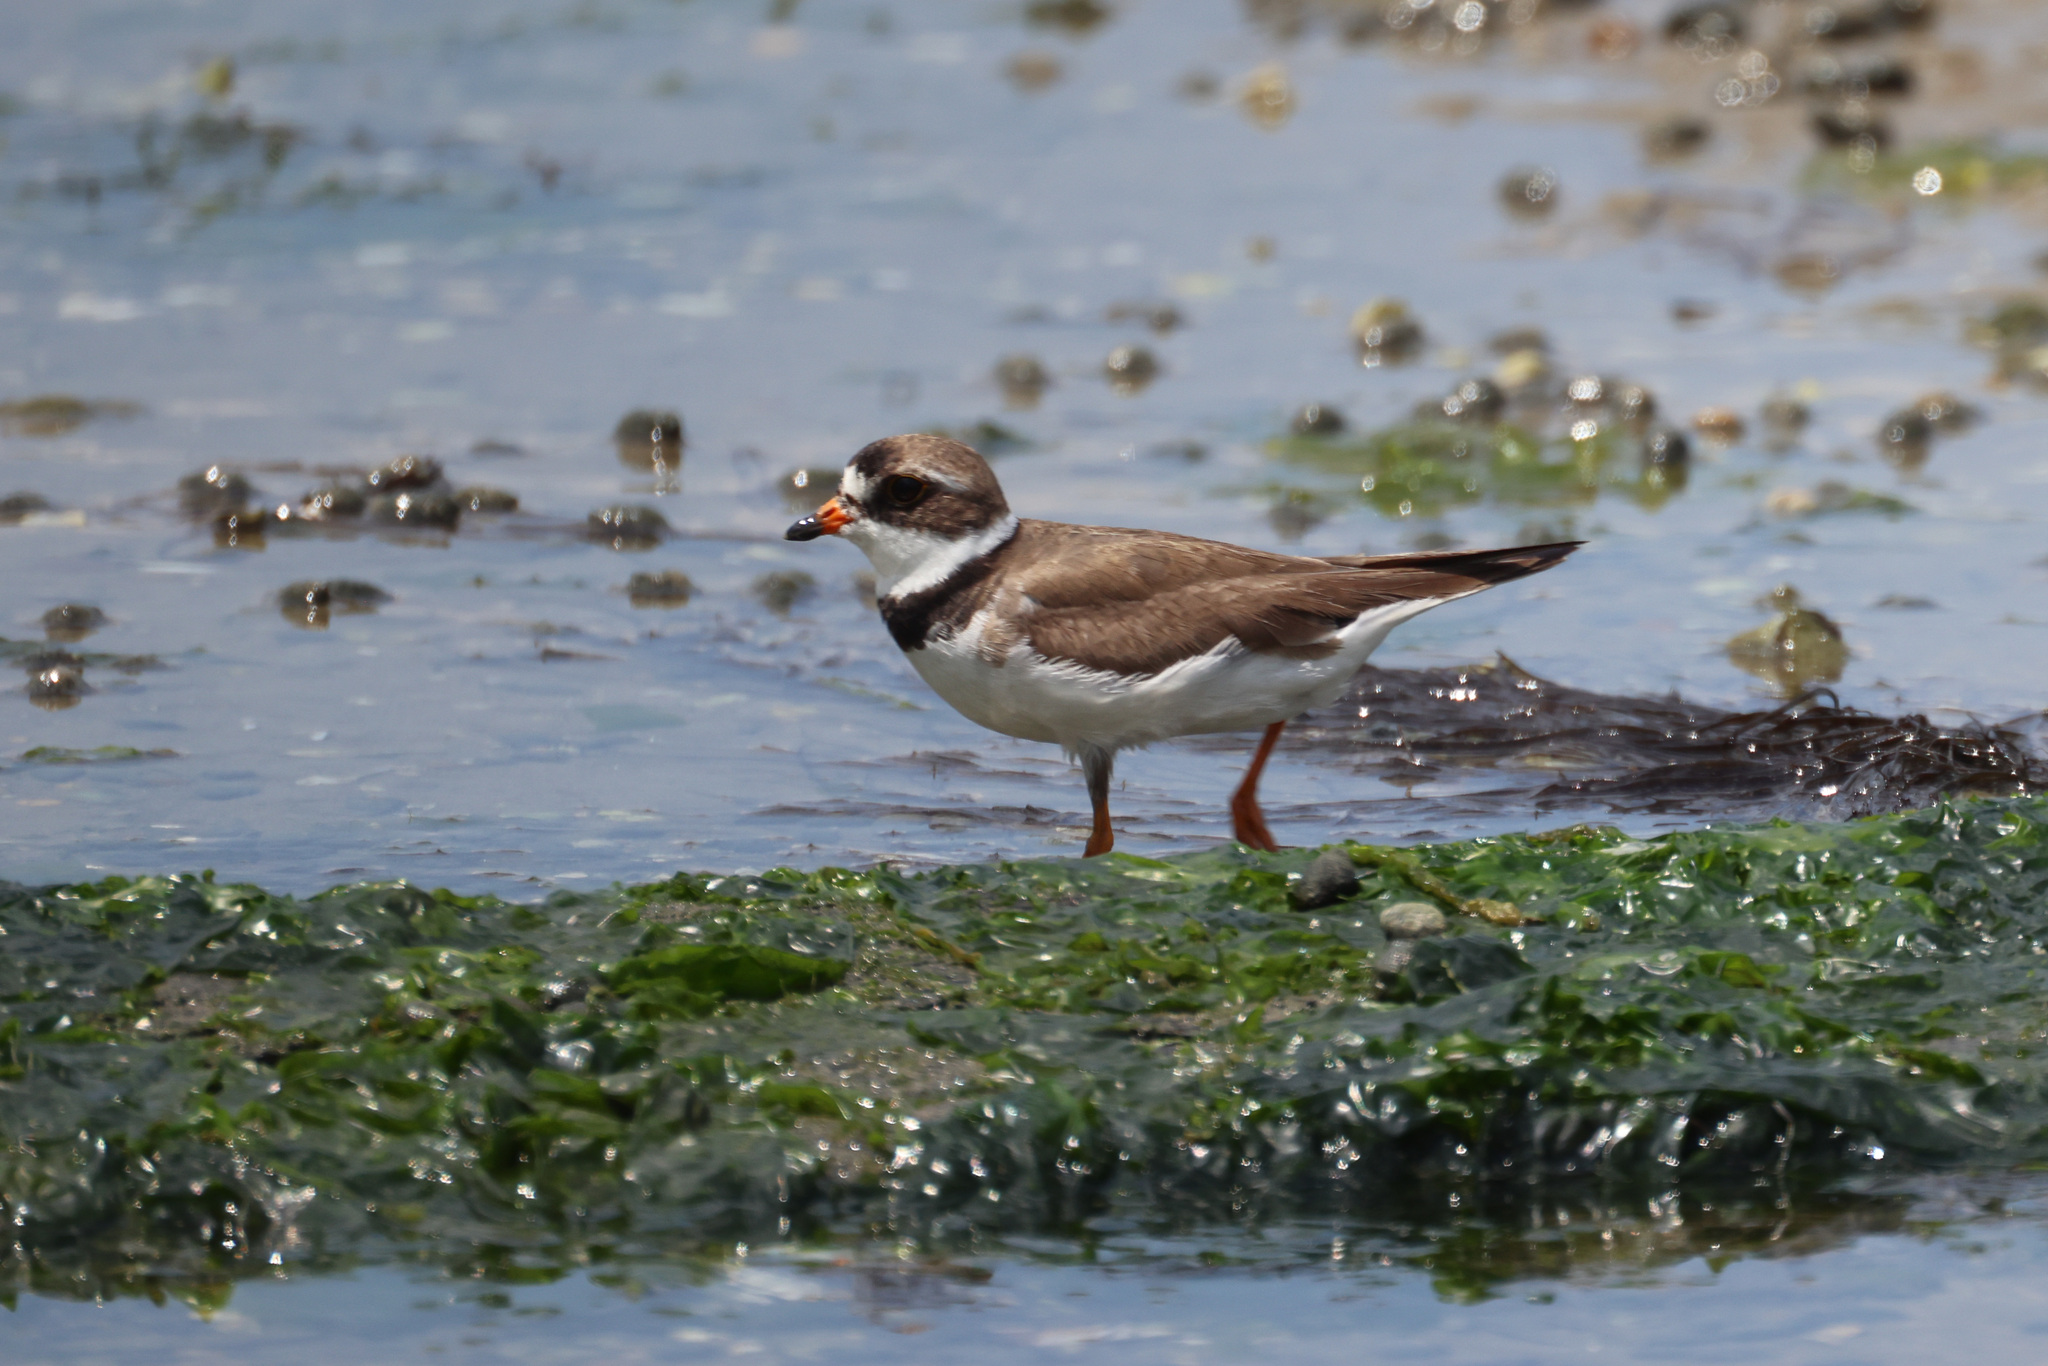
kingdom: Animalia
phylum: Chordata
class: Aves
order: Charadriiformes
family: Charadriidae
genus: Charadrius
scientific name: Charadrius semipalmatus
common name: Semipalmated plover
